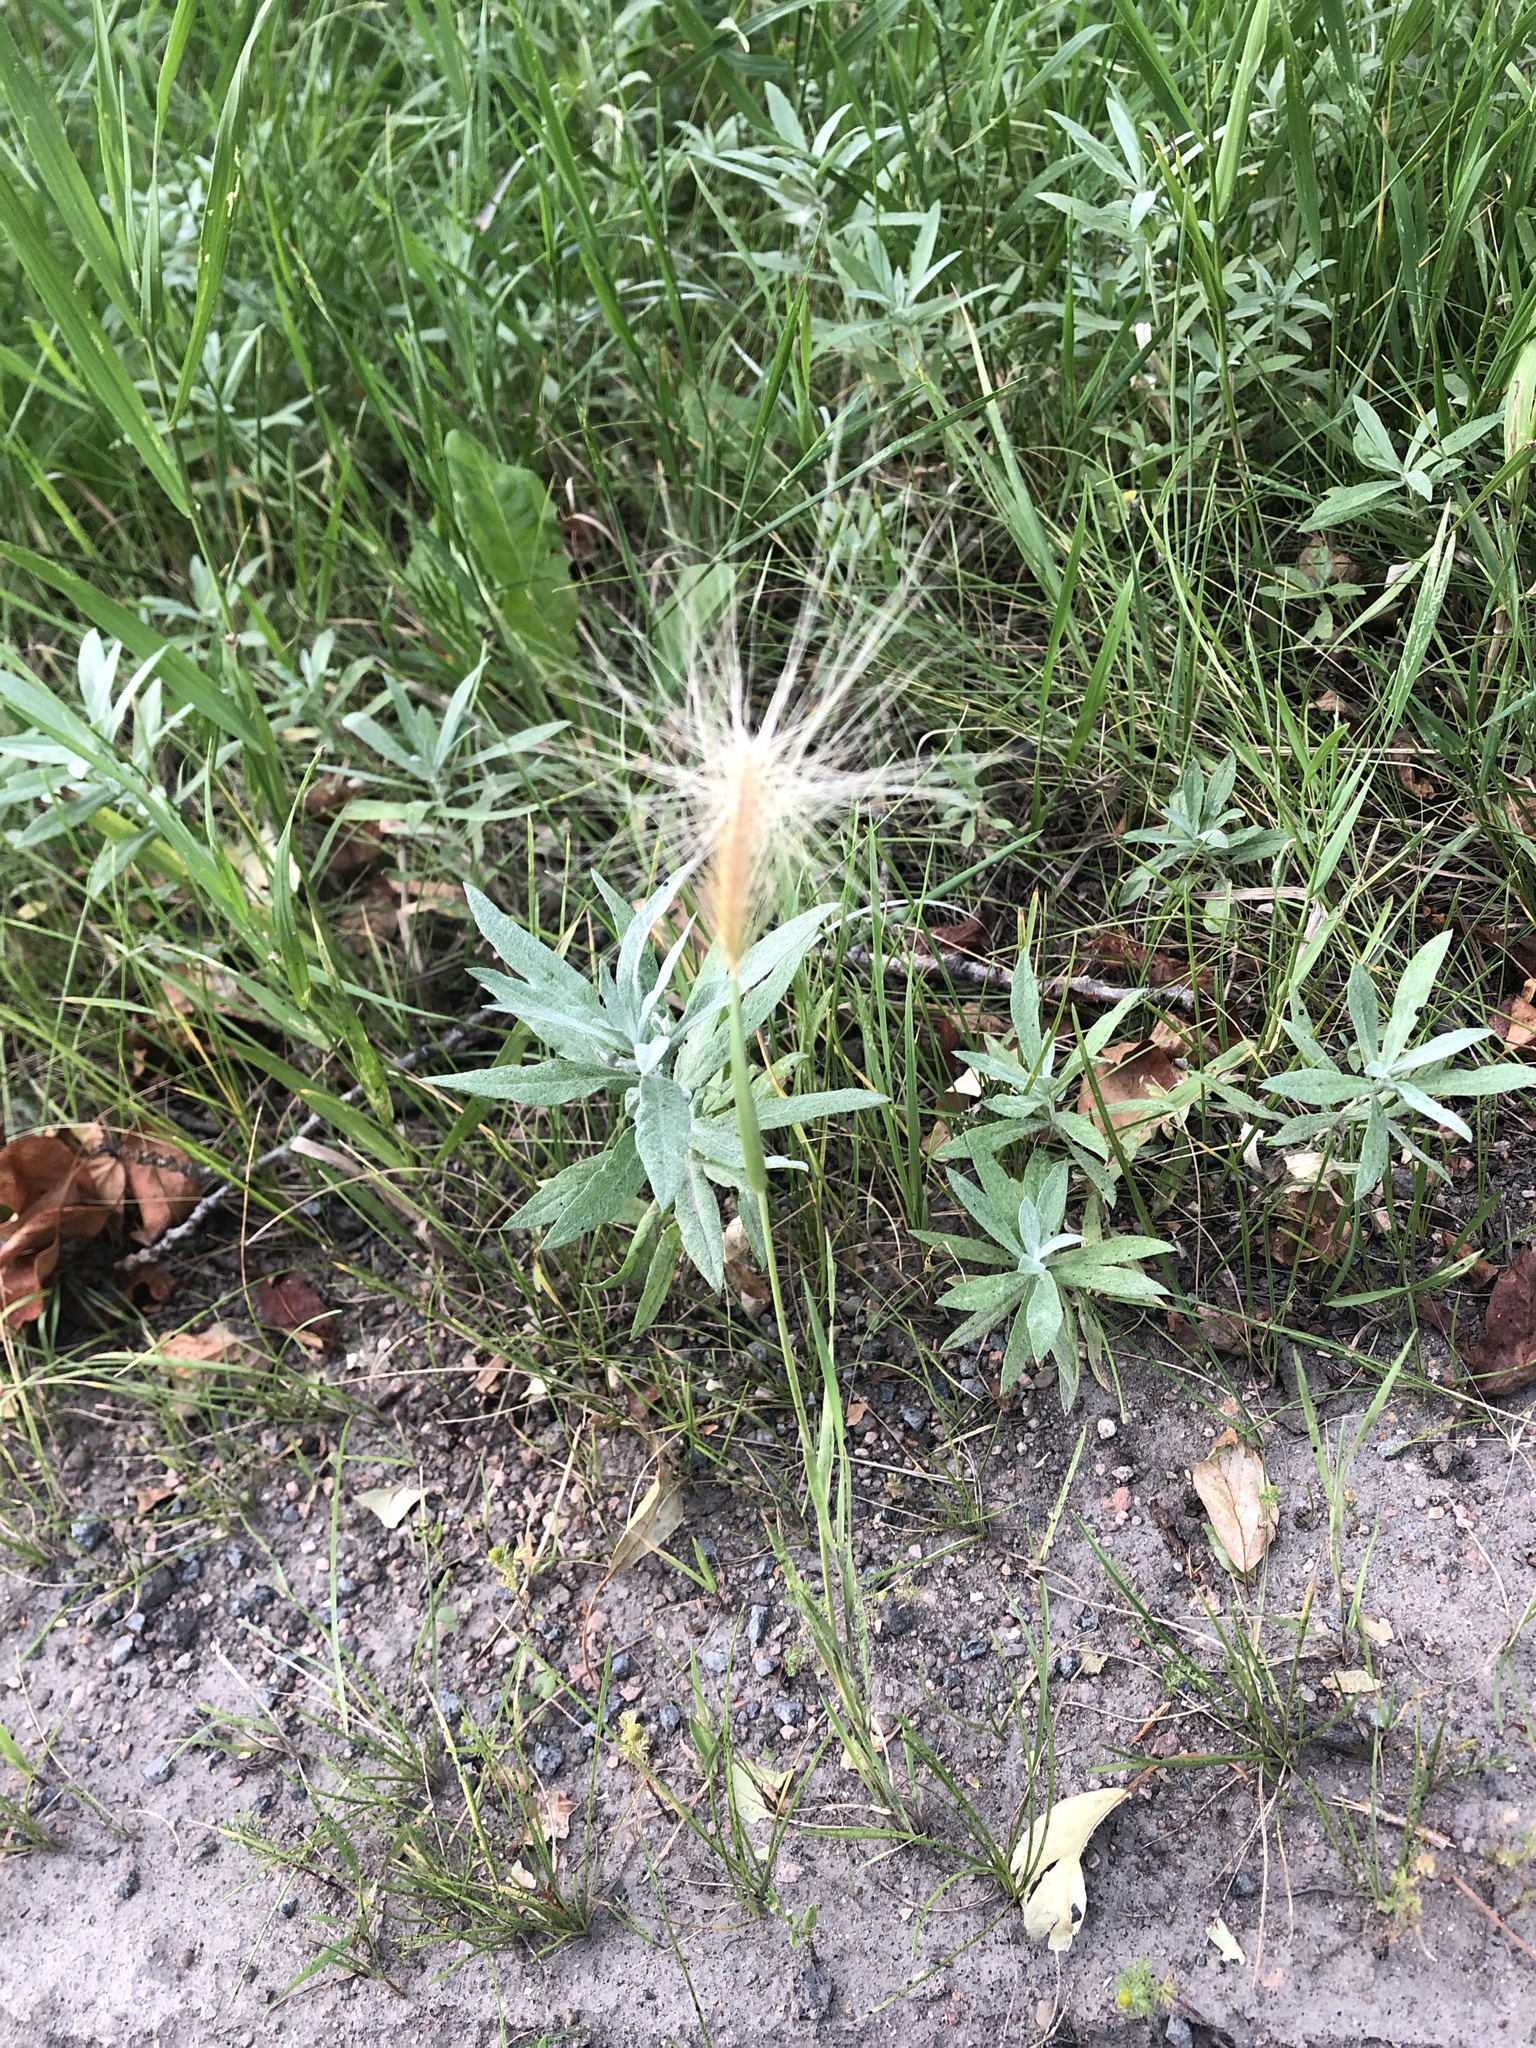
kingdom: Plantae
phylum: Tracheophyta
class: Liliopsida
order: Poales
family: Poaceae
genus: Hordeum
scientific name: Hordeum jubatum
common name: Foxtail barley
